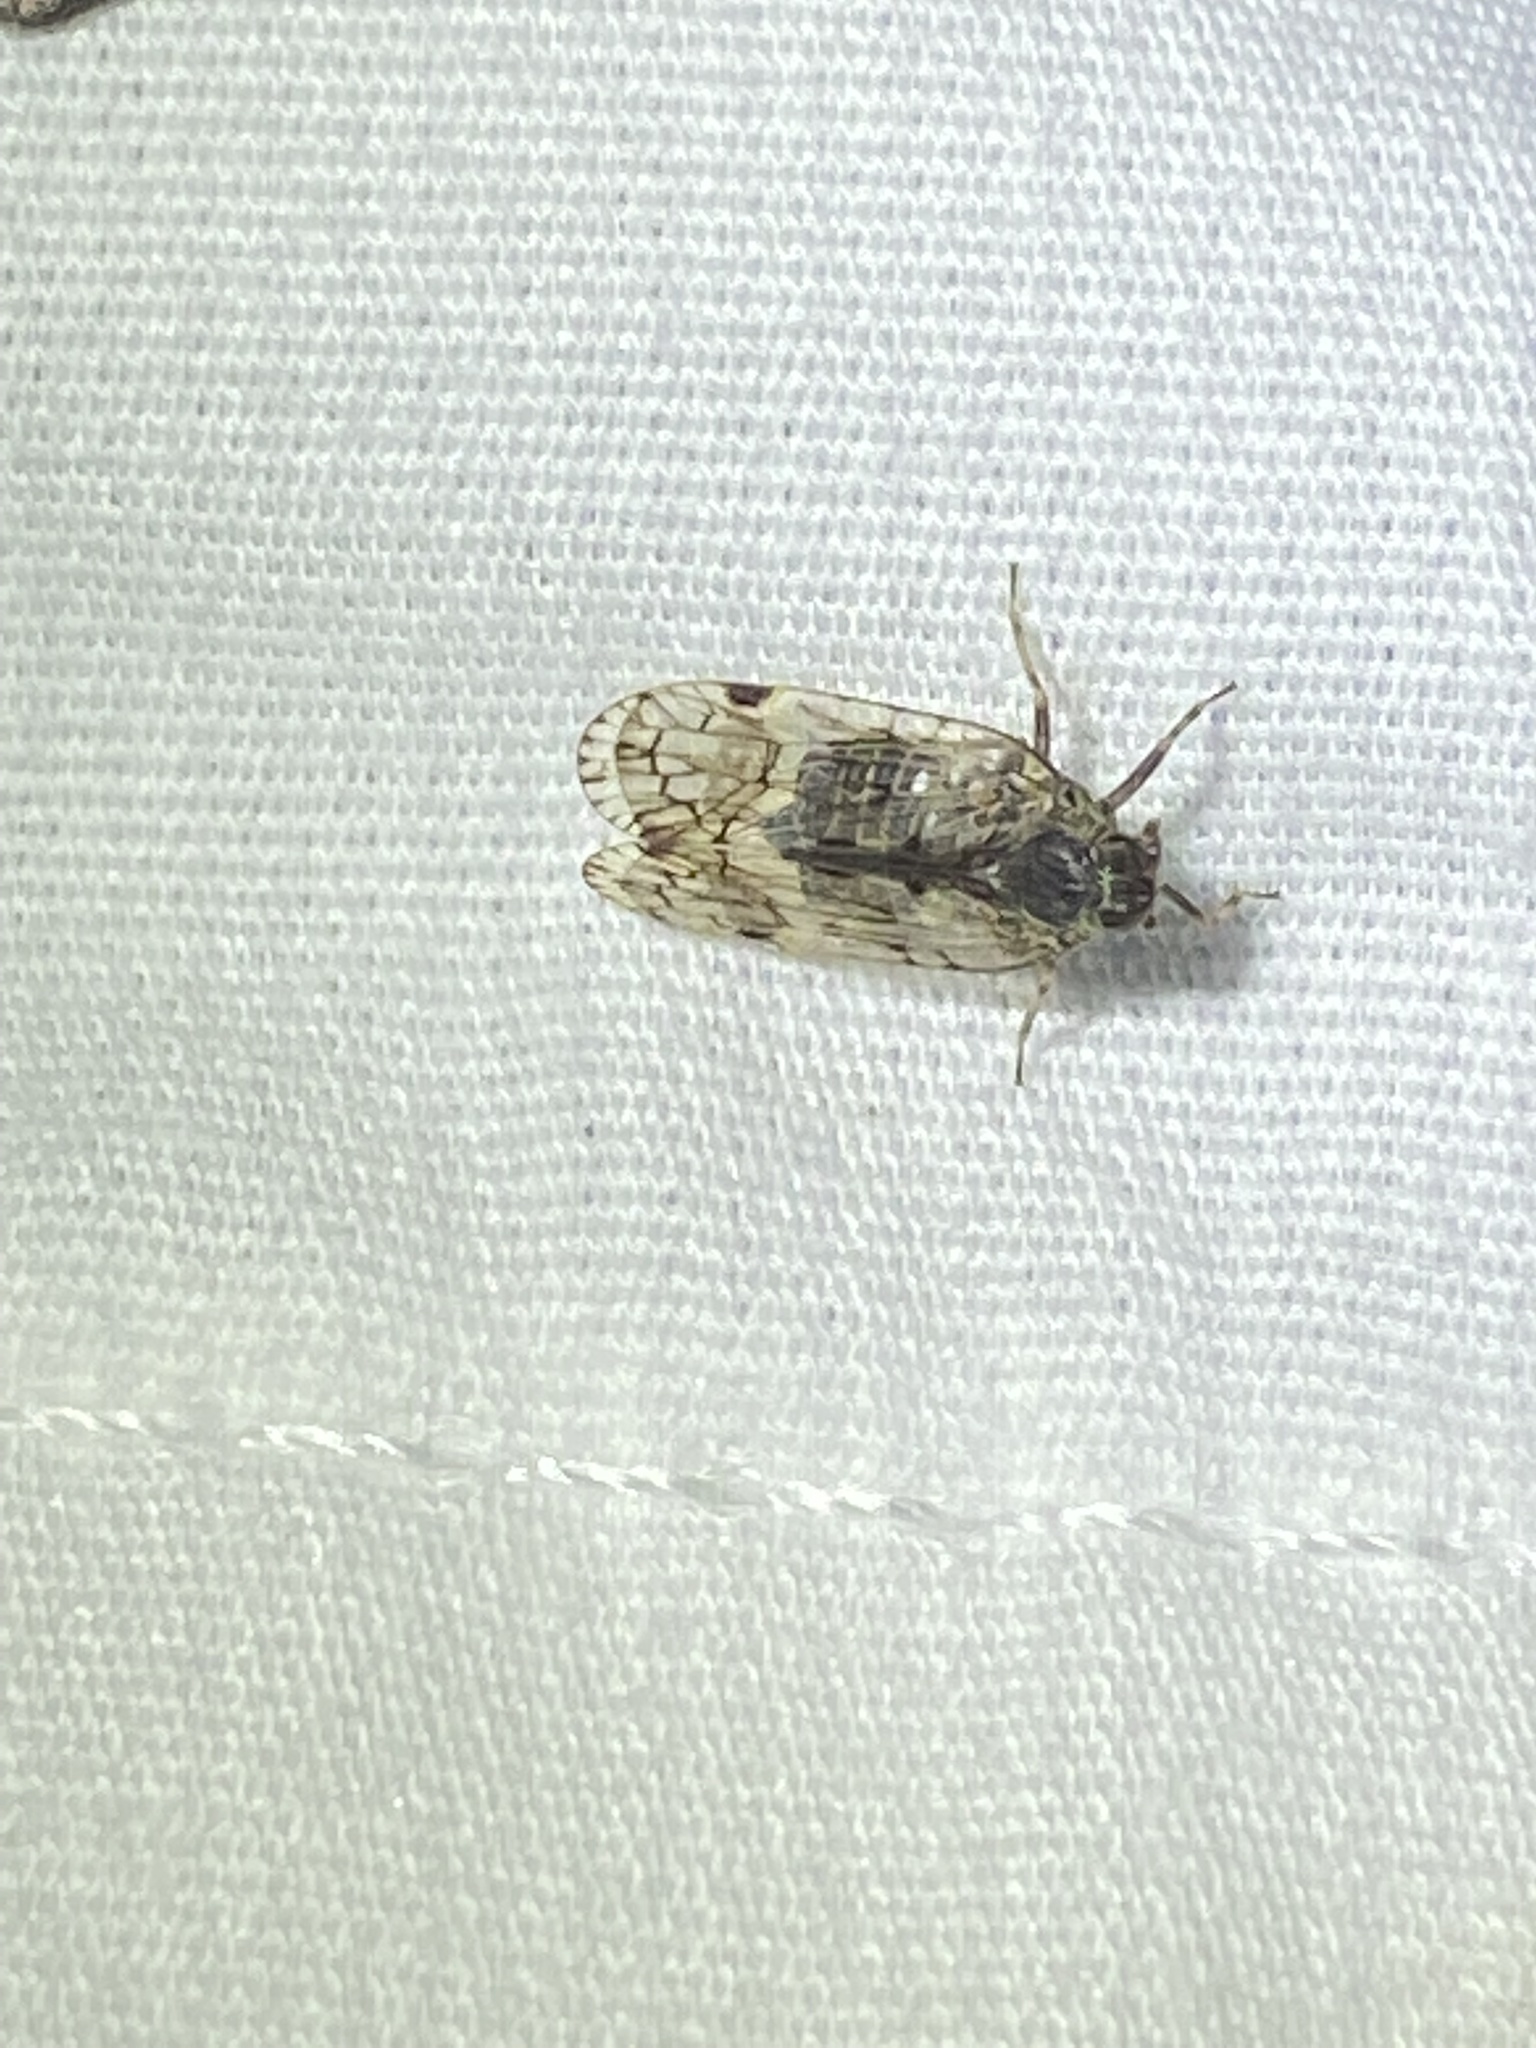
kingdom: Animalia
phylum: Arthropoda
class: Insecta
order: Hemiptera
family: Cixiidae
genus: Melanoliarus
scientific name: Melanoliarus placitus
